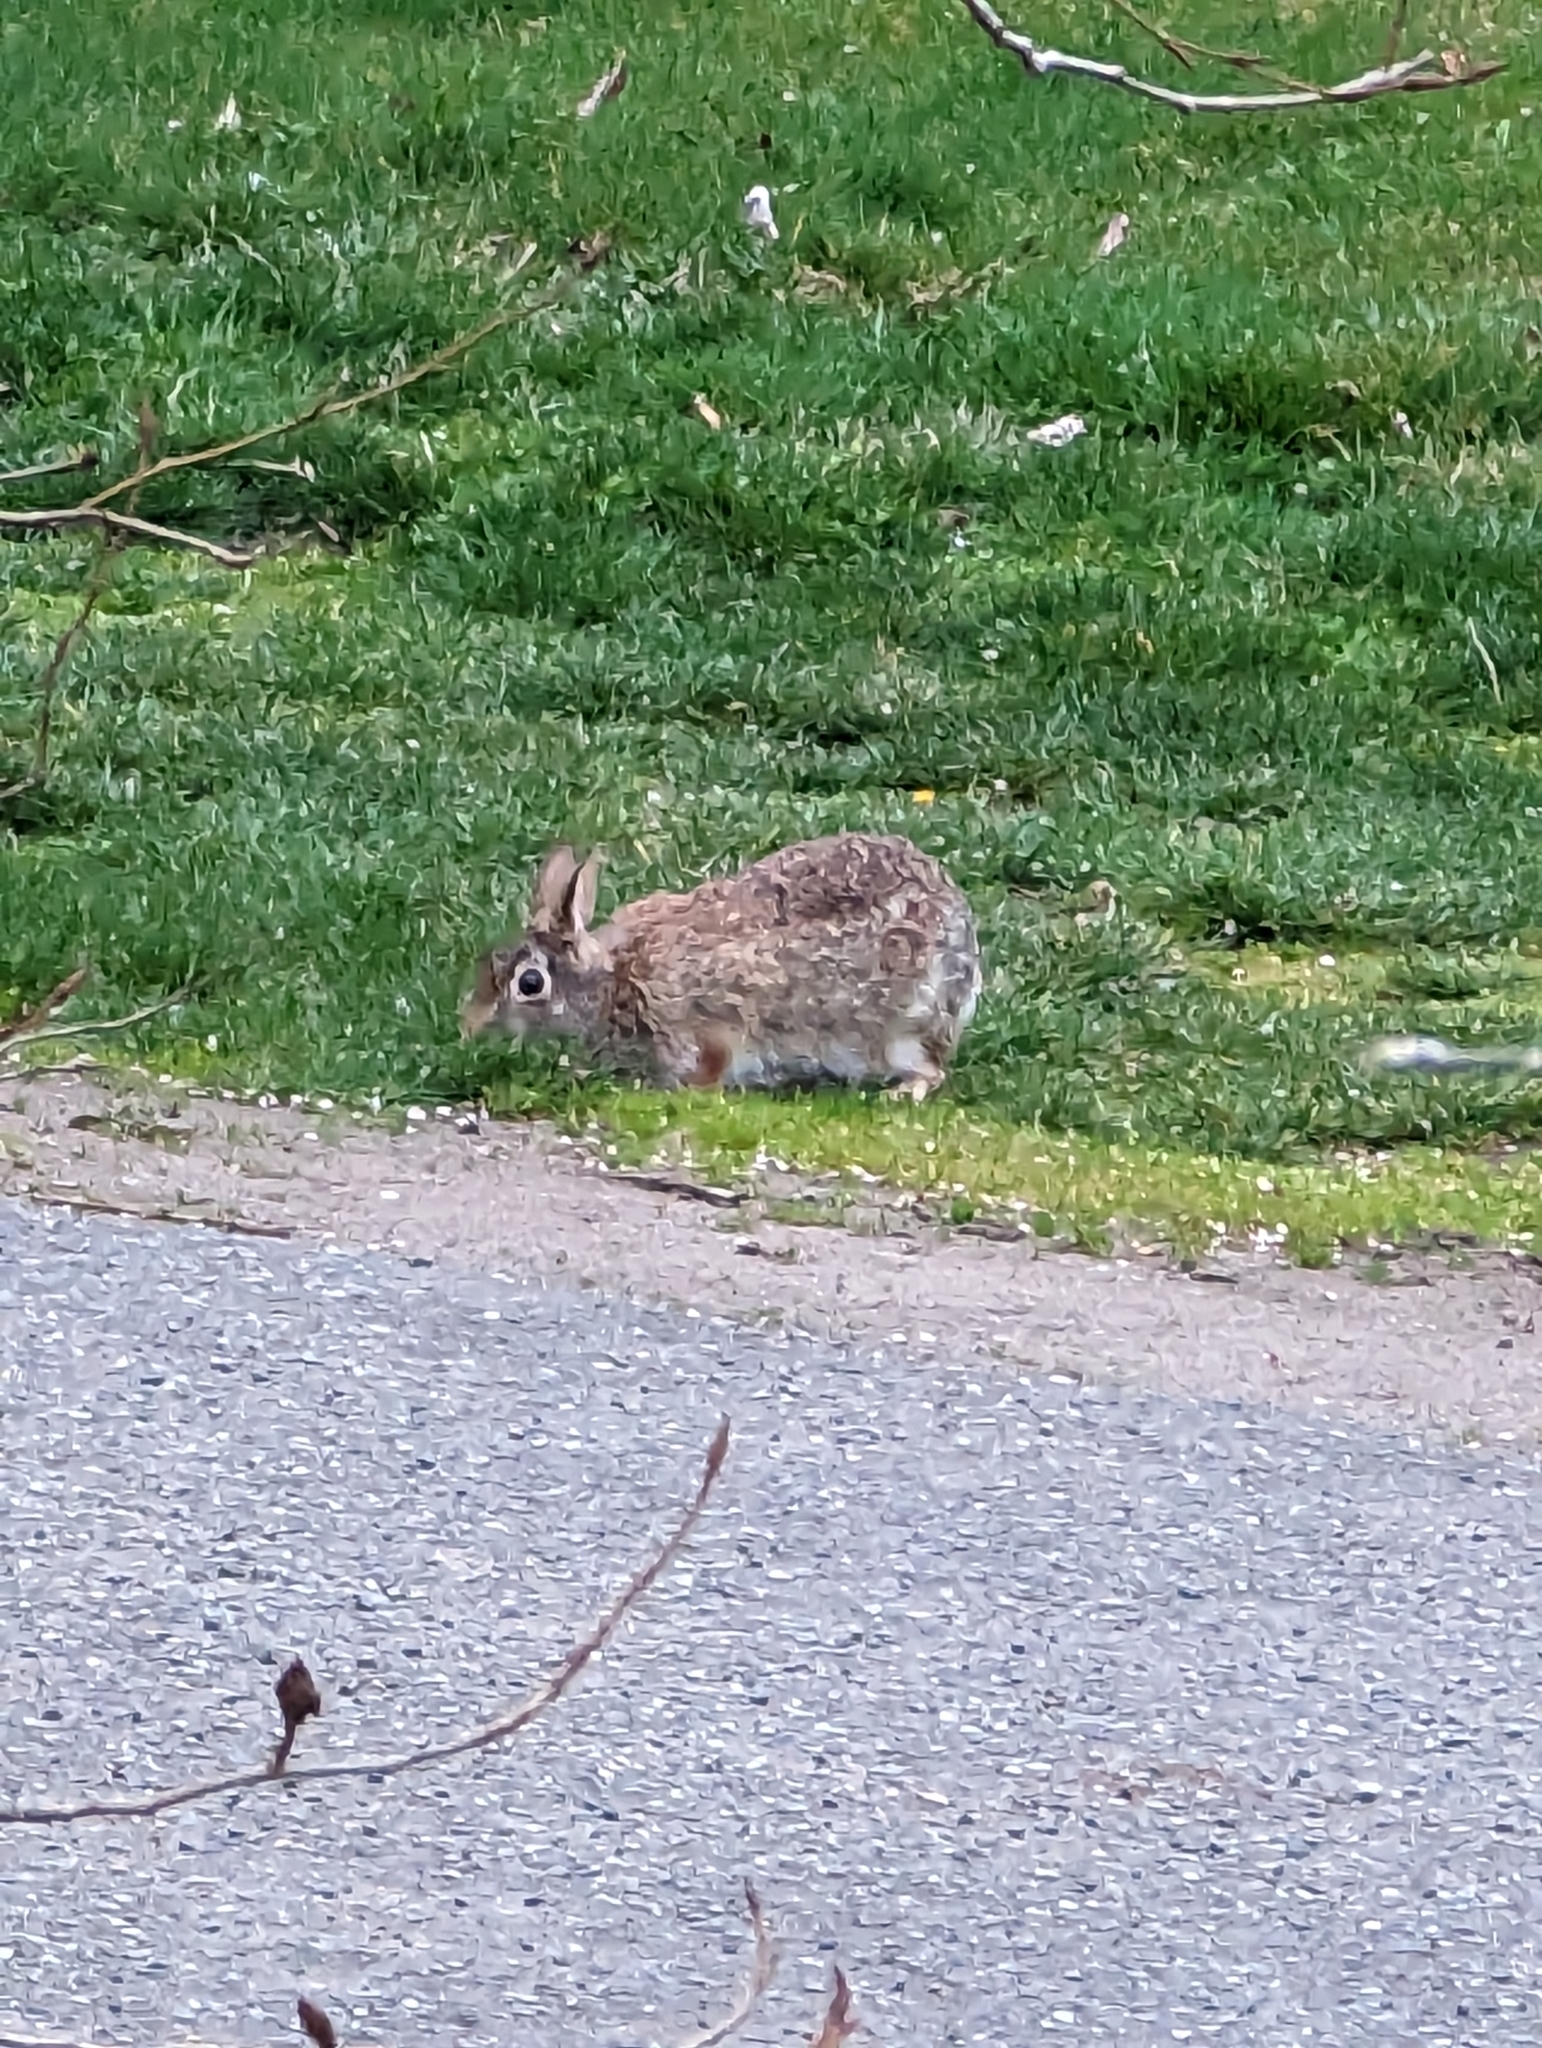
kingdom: Animalia
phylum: Chordata
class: Mammalia
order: Lagomorpha
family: Leporidae
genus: Sylvilagus
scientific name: Sylvilagus floridanus
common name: Eastern cottontail
